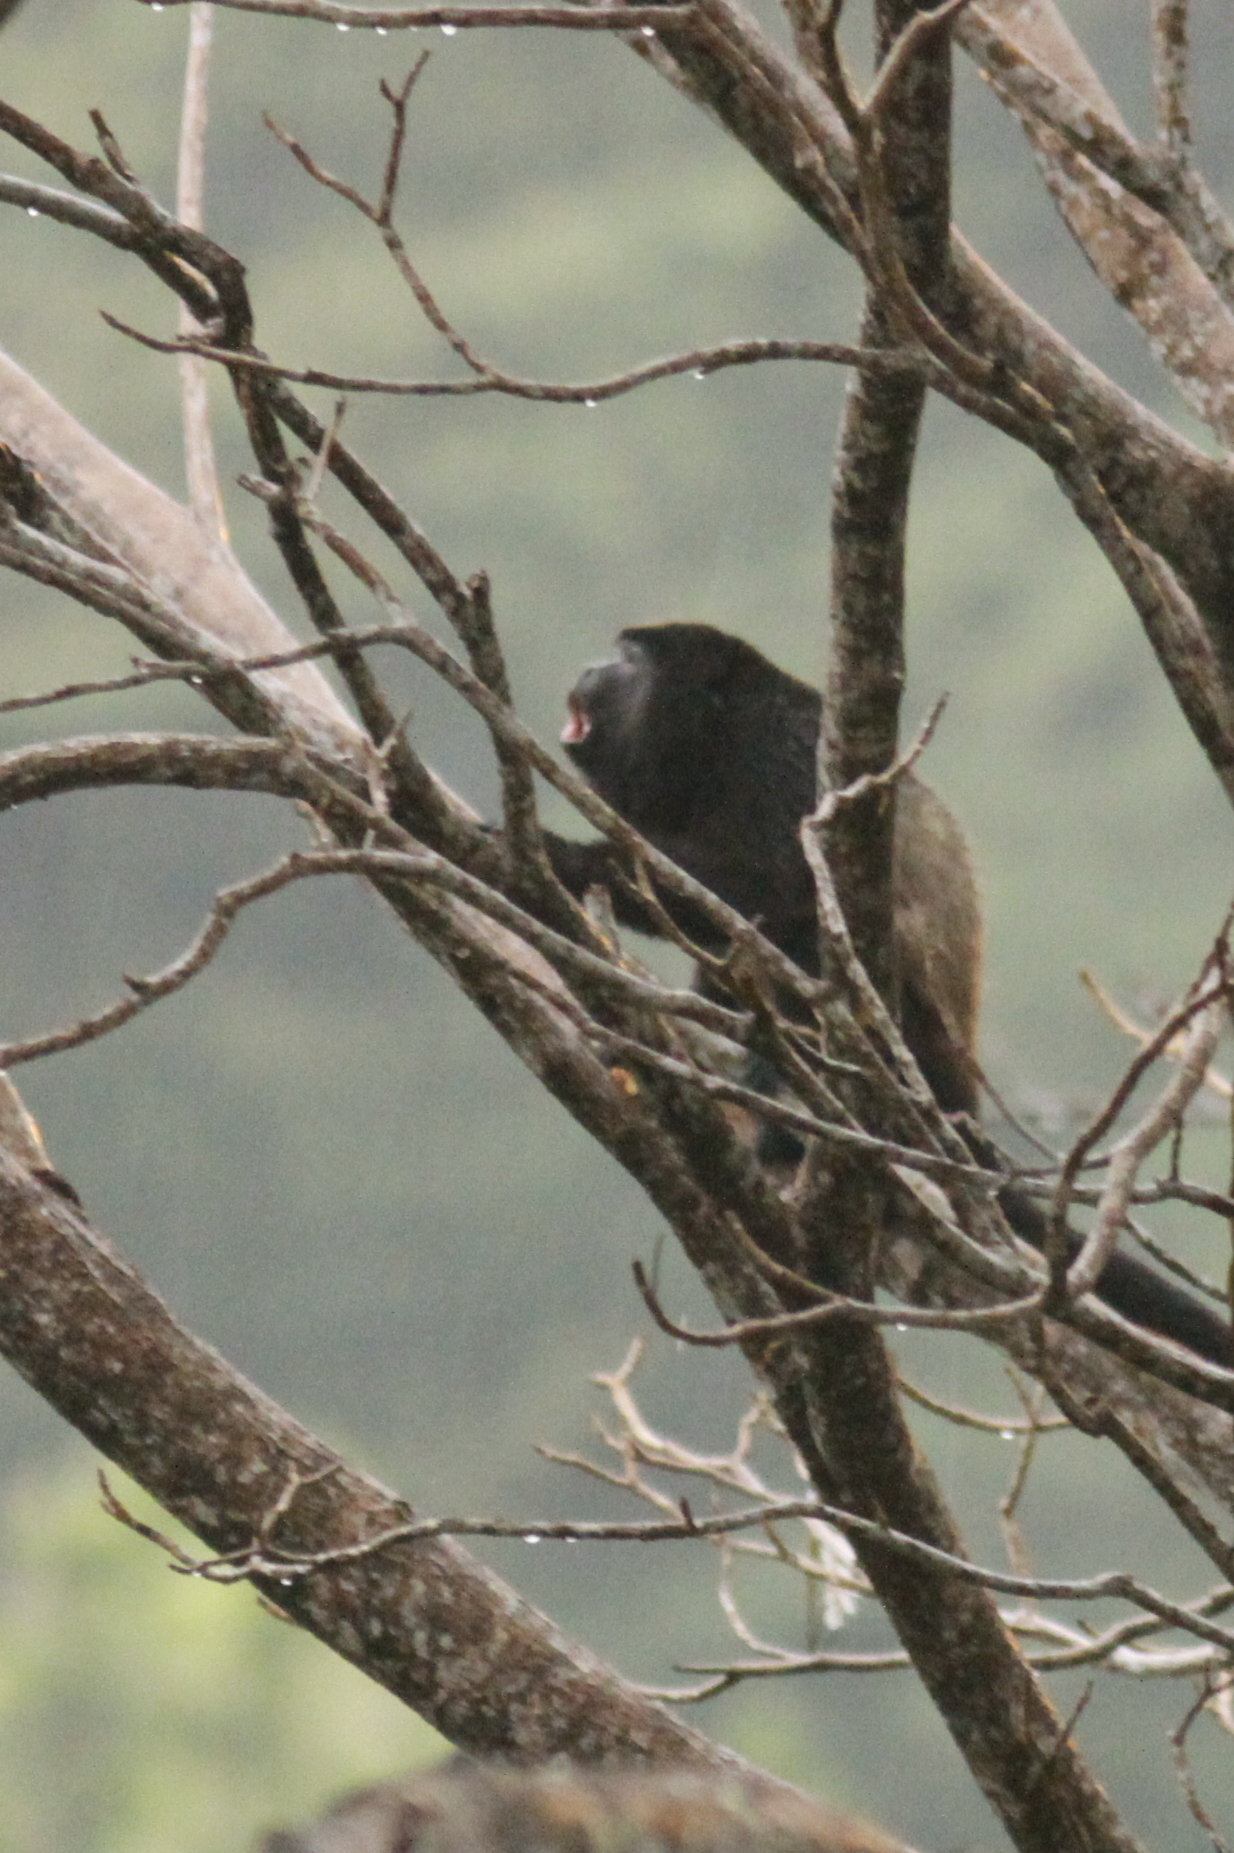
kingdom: Animalia
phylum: Chordata
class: Mammalia
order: Primates
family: Atelidae
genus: Alouatta
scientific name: Alouatta palliata
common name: Mantled howler
